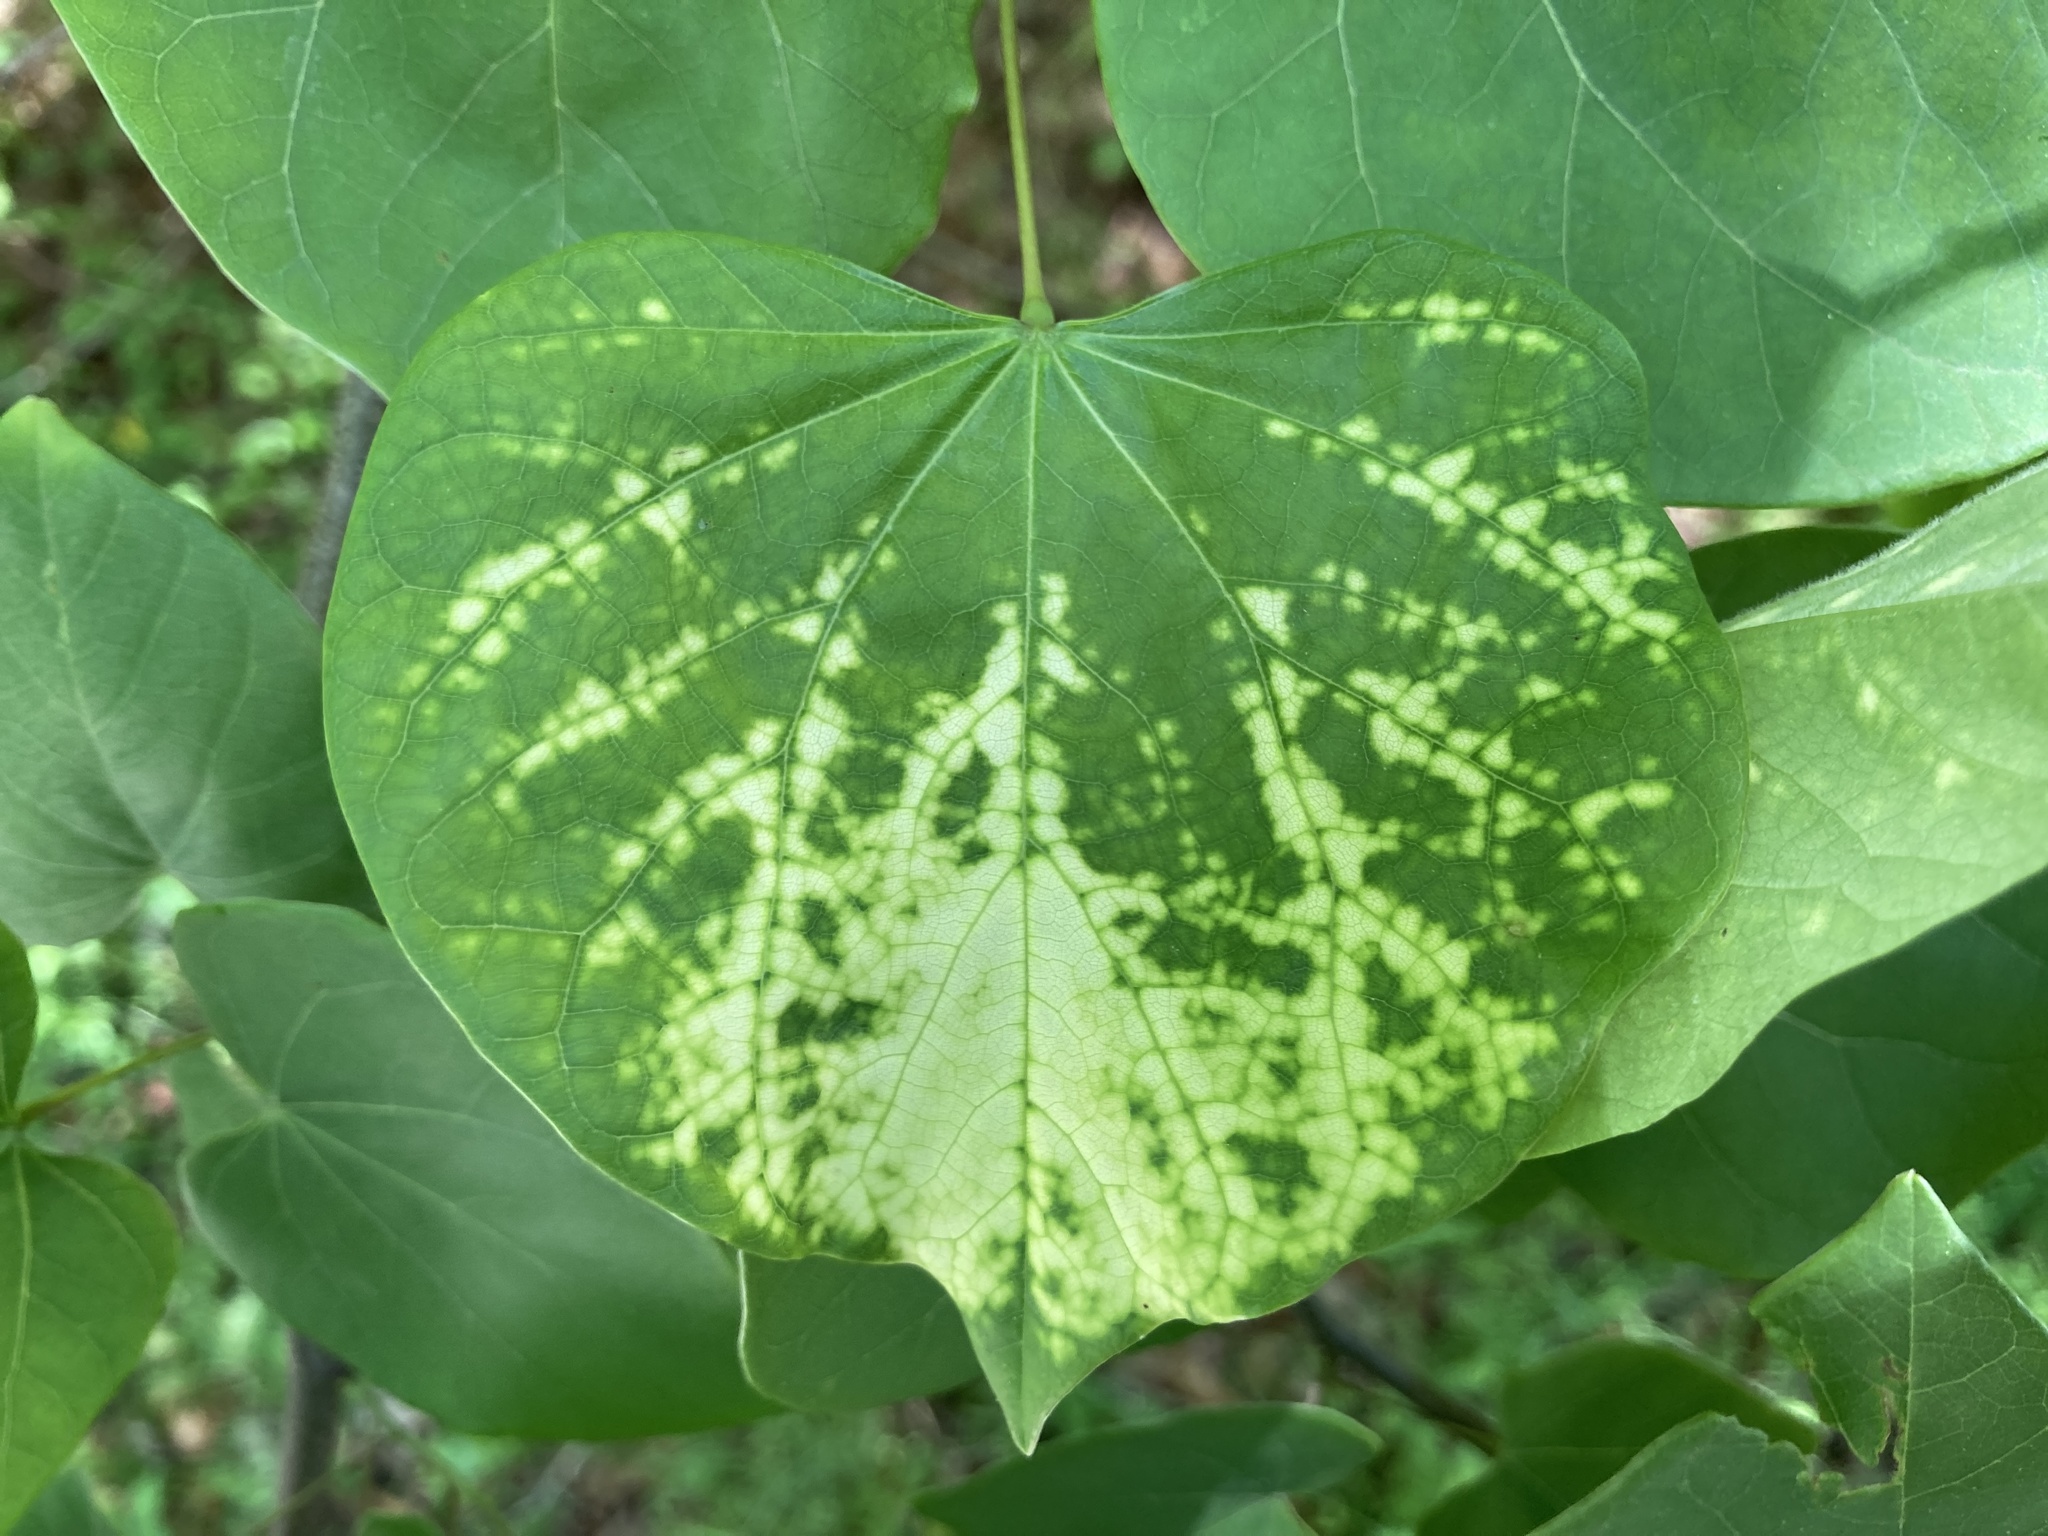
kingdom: Viruses
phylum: Negarnaviricota
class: Ellioviricetes
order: Bunyavirales
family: Fimoviridae
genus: Emaravirus
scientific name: Emaravirus cercidis
